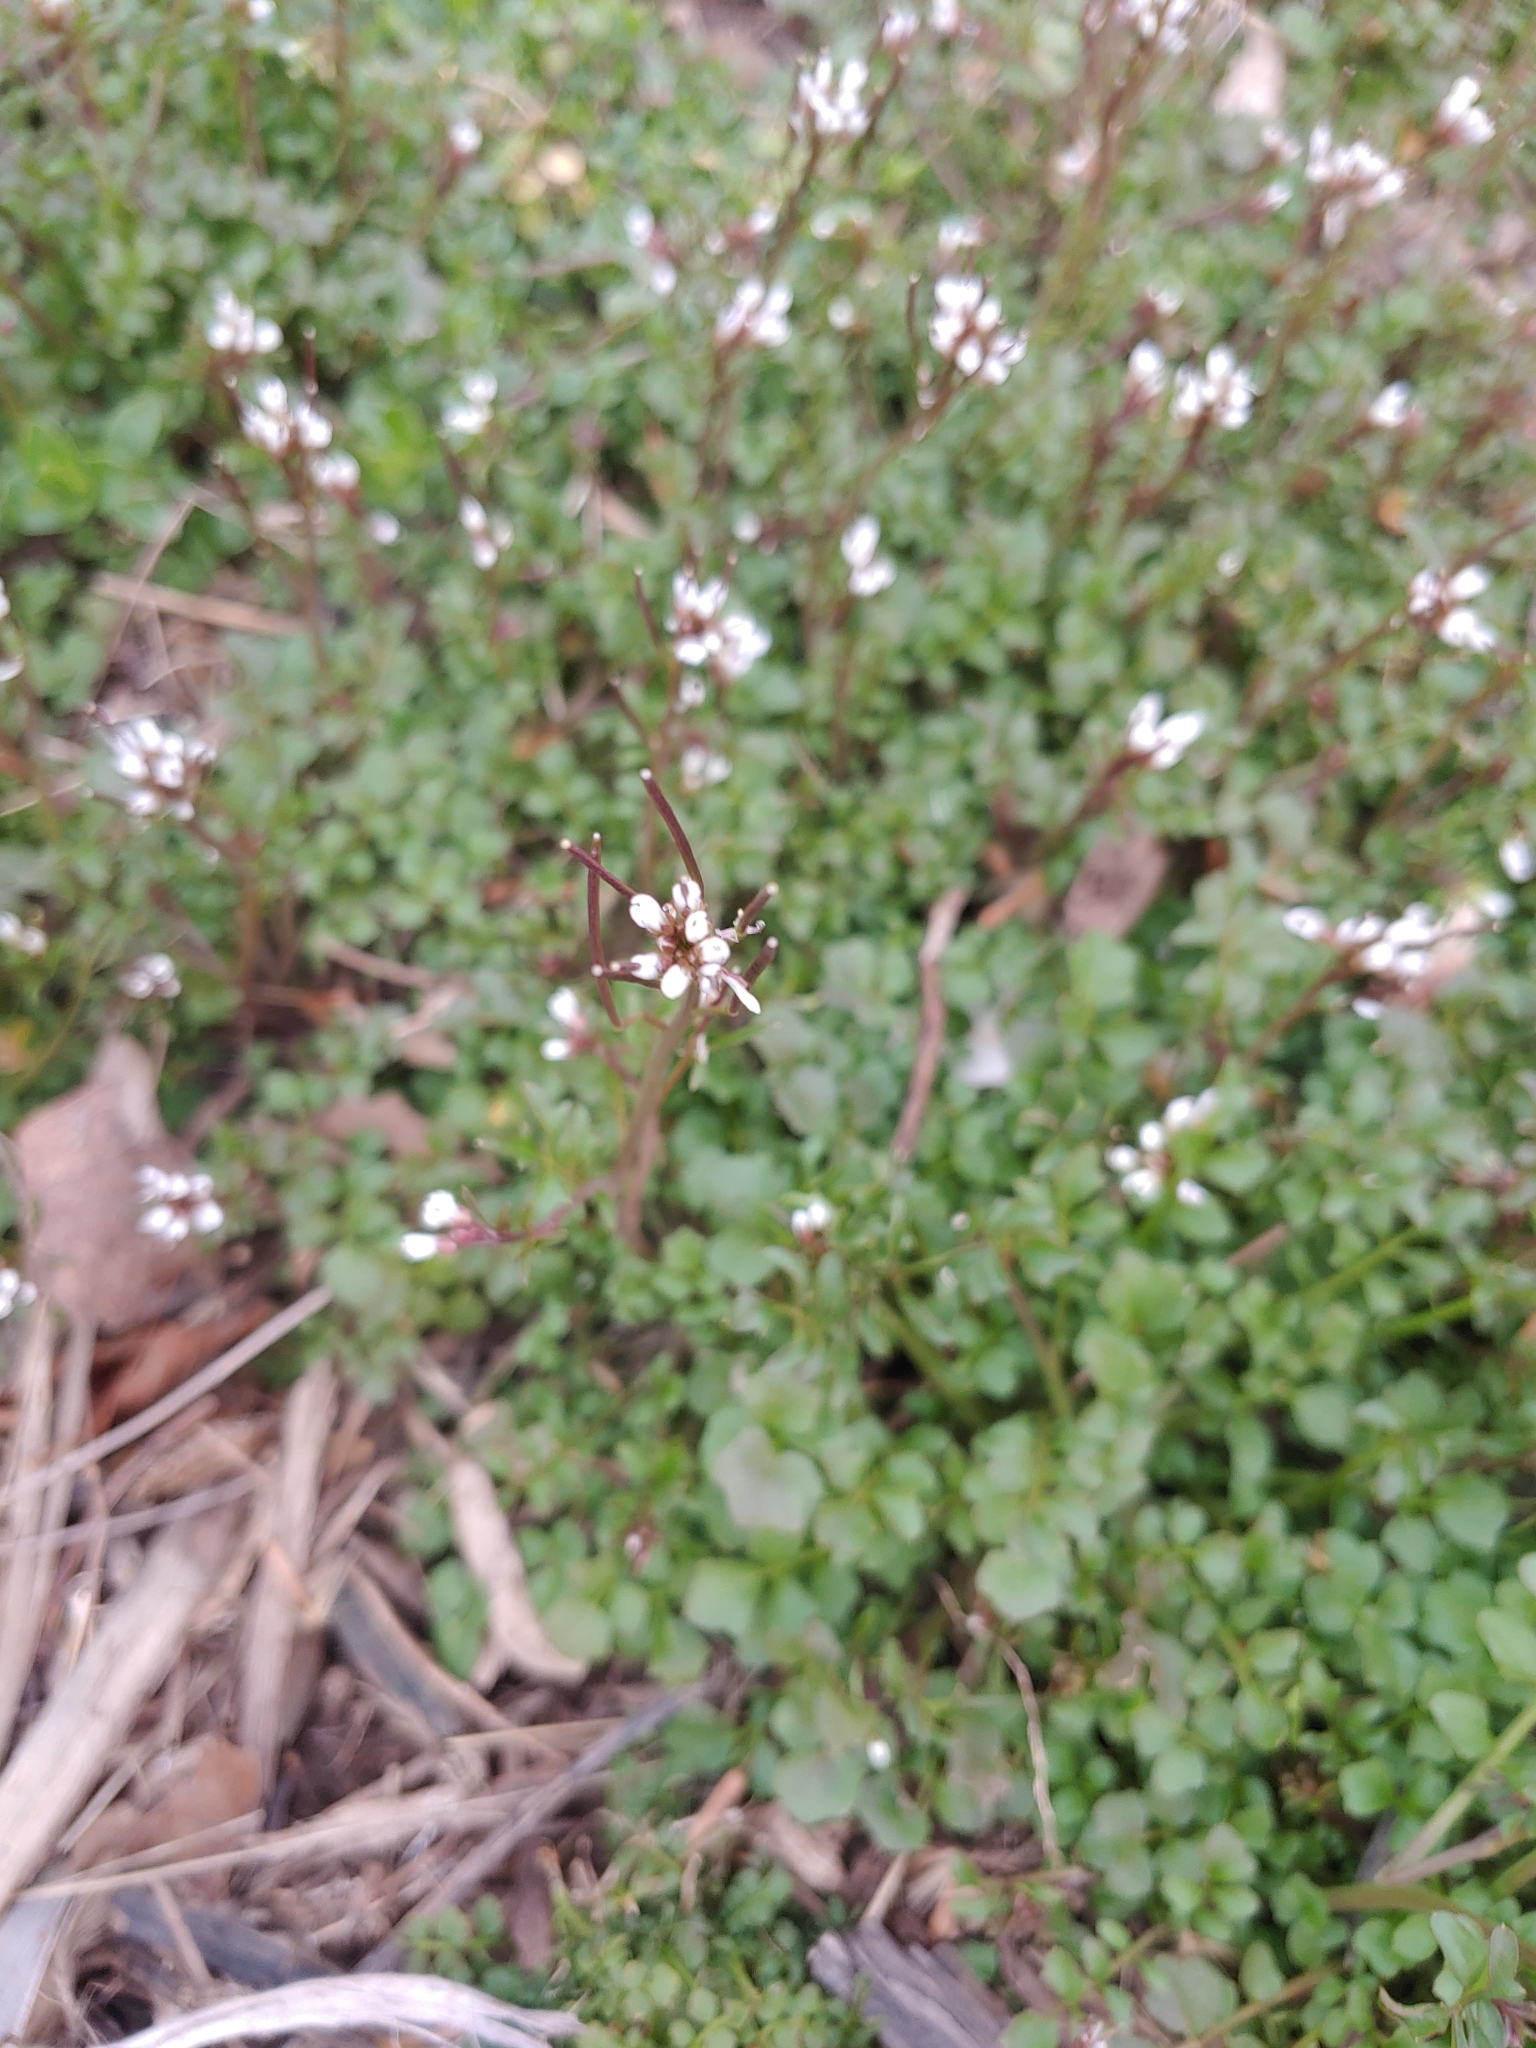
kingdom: Plantae
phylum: Tracheophyta
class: Magnoliopsida
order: Brassicales
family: Brassicaceae
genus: Cardamine
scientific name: Cardamine hirsuta
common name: Hairy bittercress
